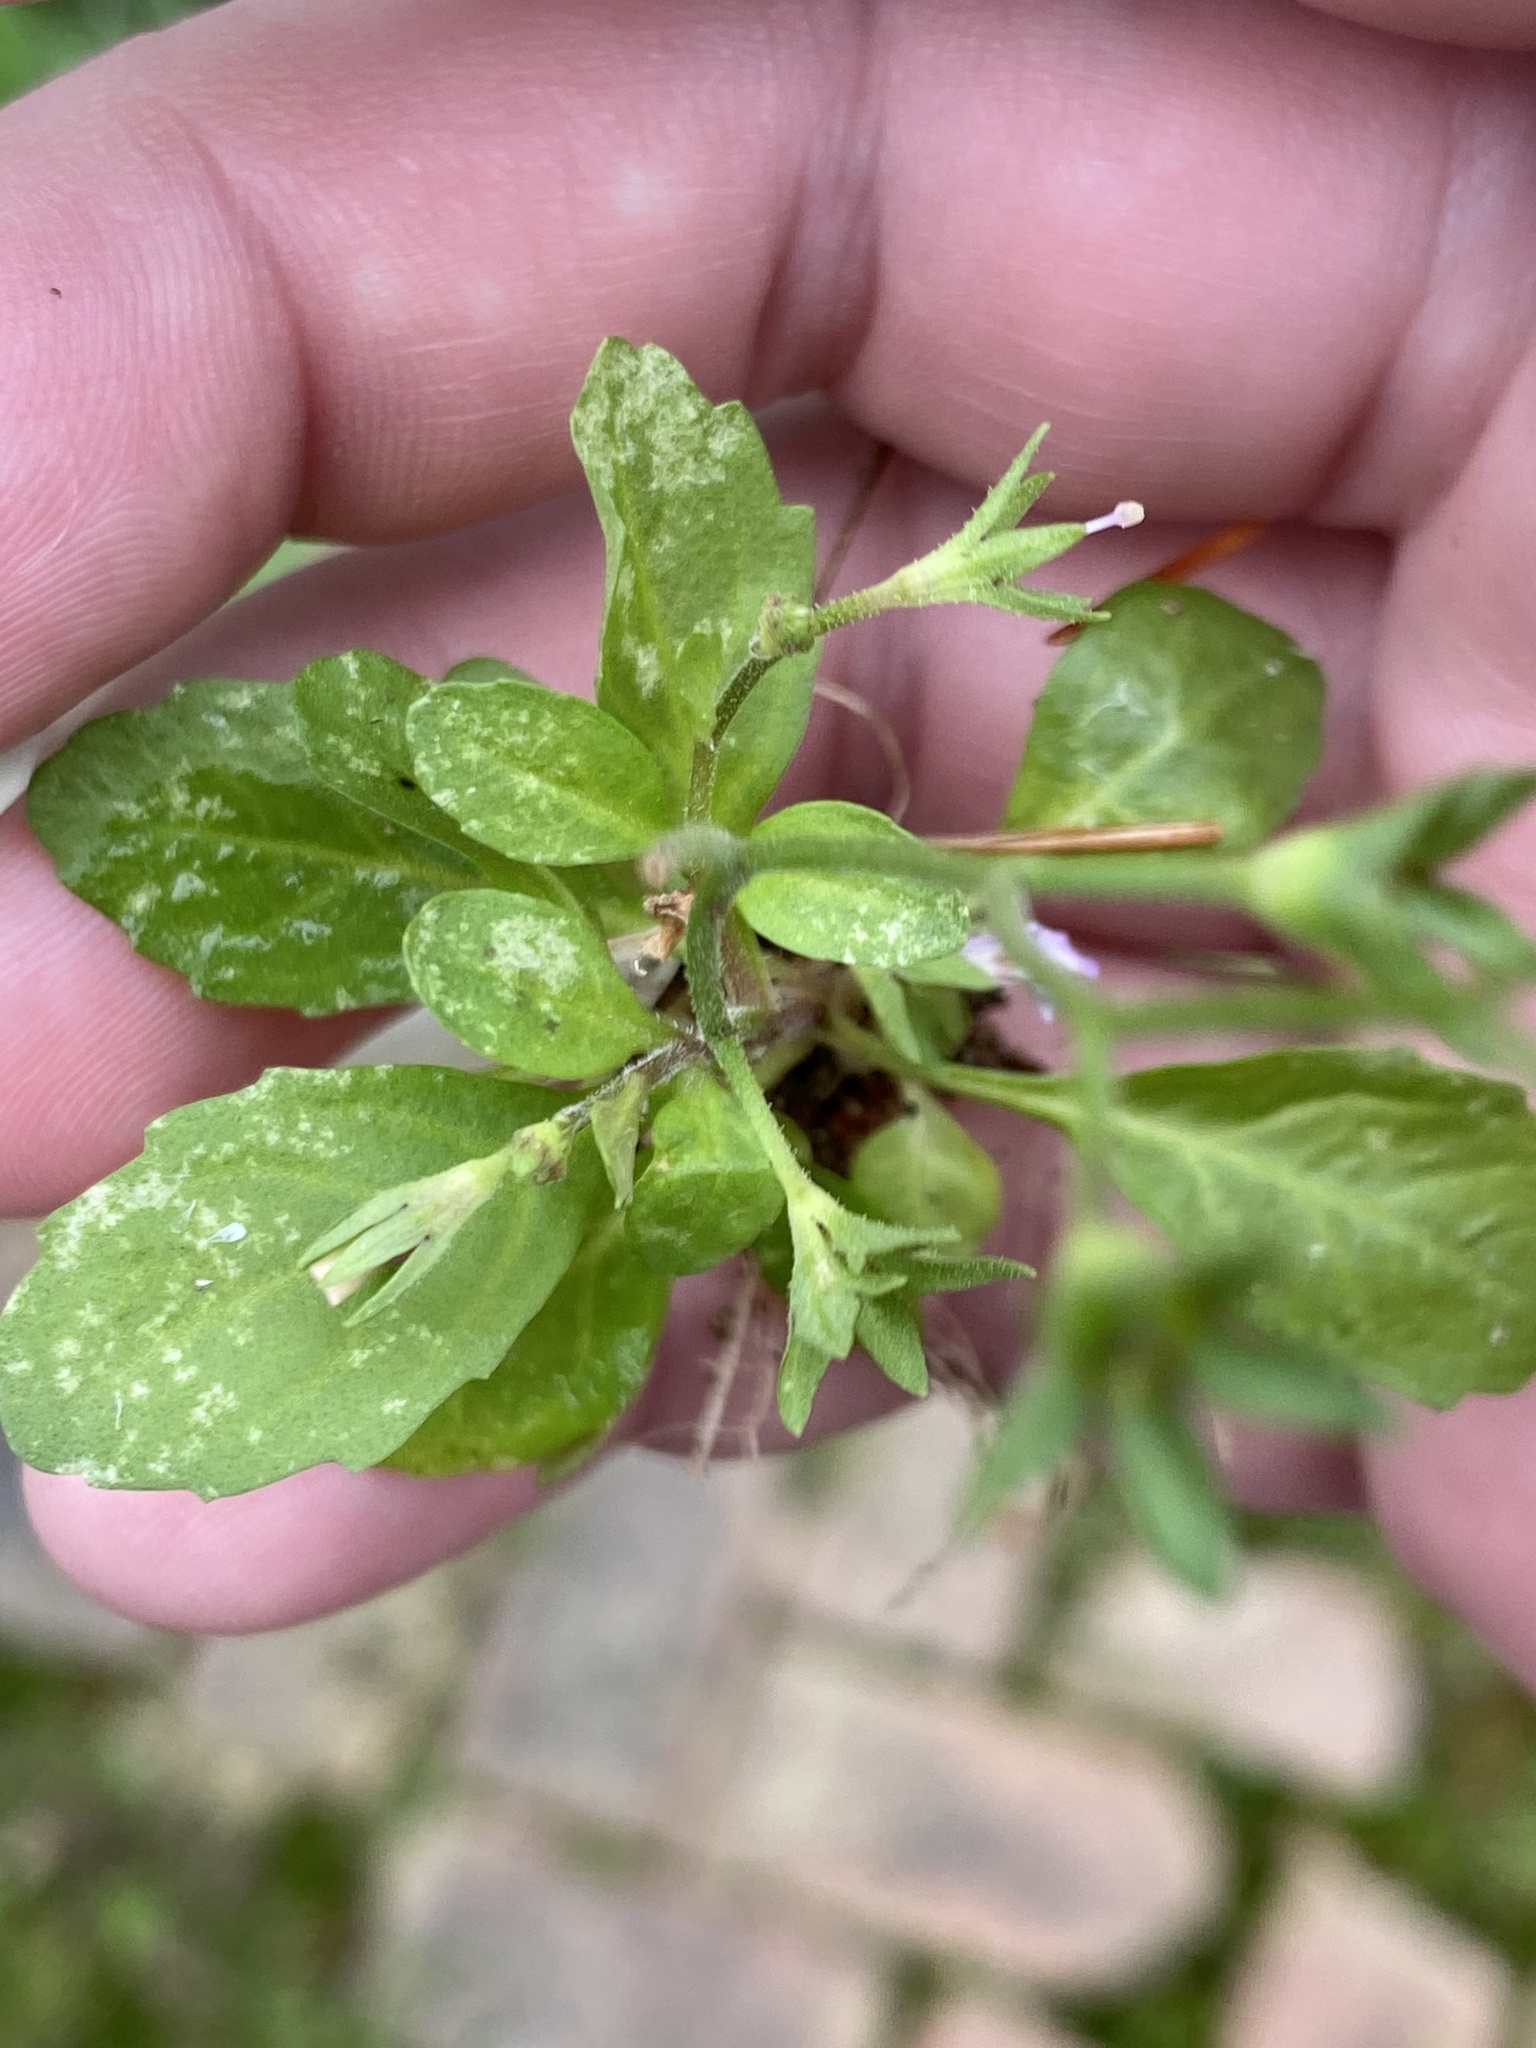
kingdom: Plantae
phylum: Tracheophyta
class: Magnoliopsida
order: Lamiales
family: Mazaceae
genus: Mazus
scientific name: Mazus pumilus
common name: Japanese mazus
